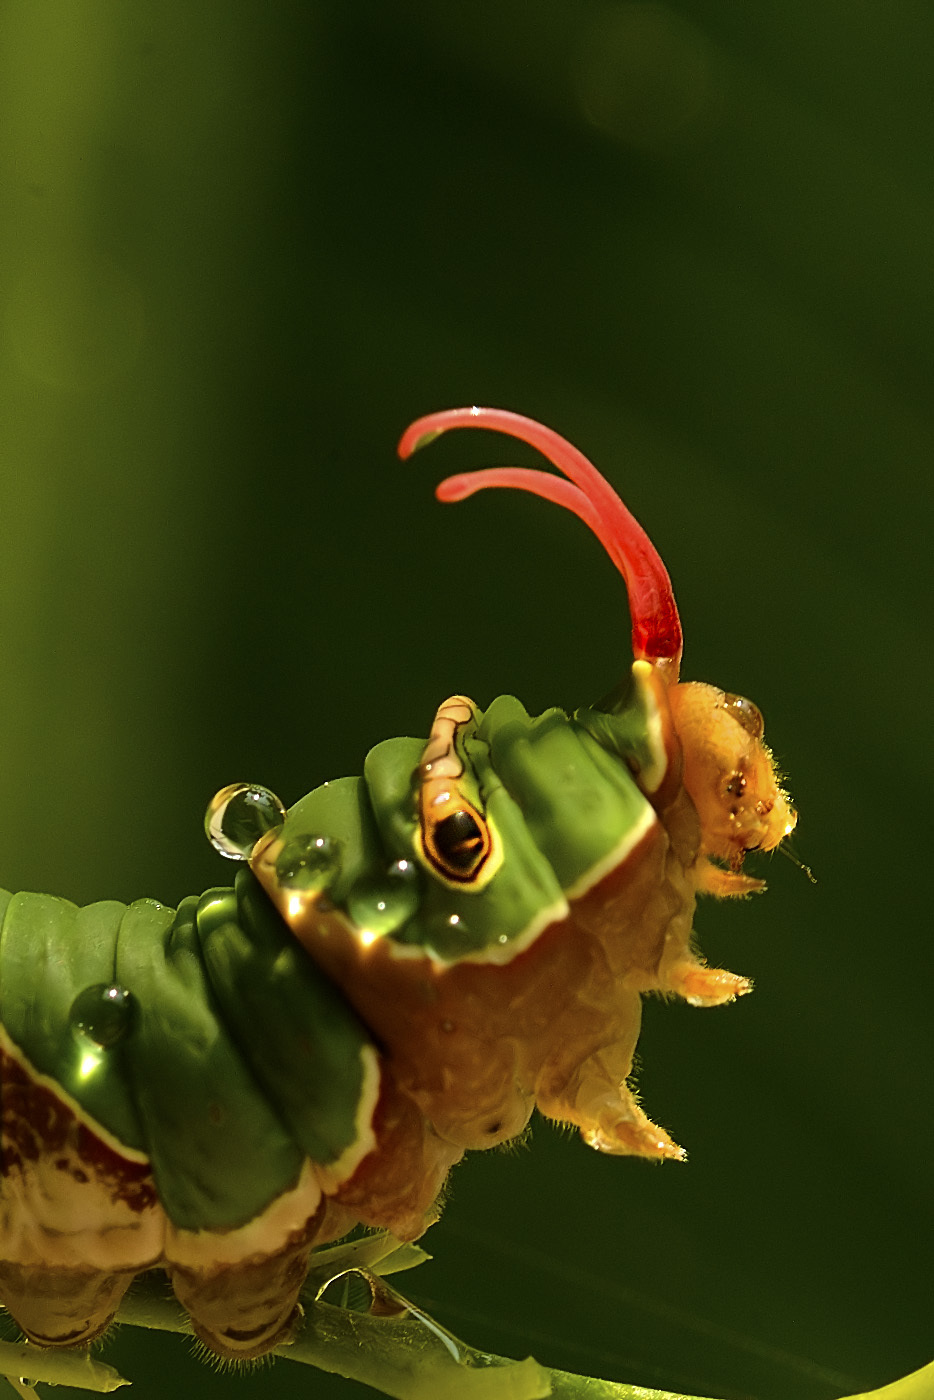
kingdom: Animalia
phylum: Arthropoda
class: Insecta
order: Lepidoptera
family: Papilionidae
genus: Papilio
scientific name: Papilio polytes
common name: Common mormon
